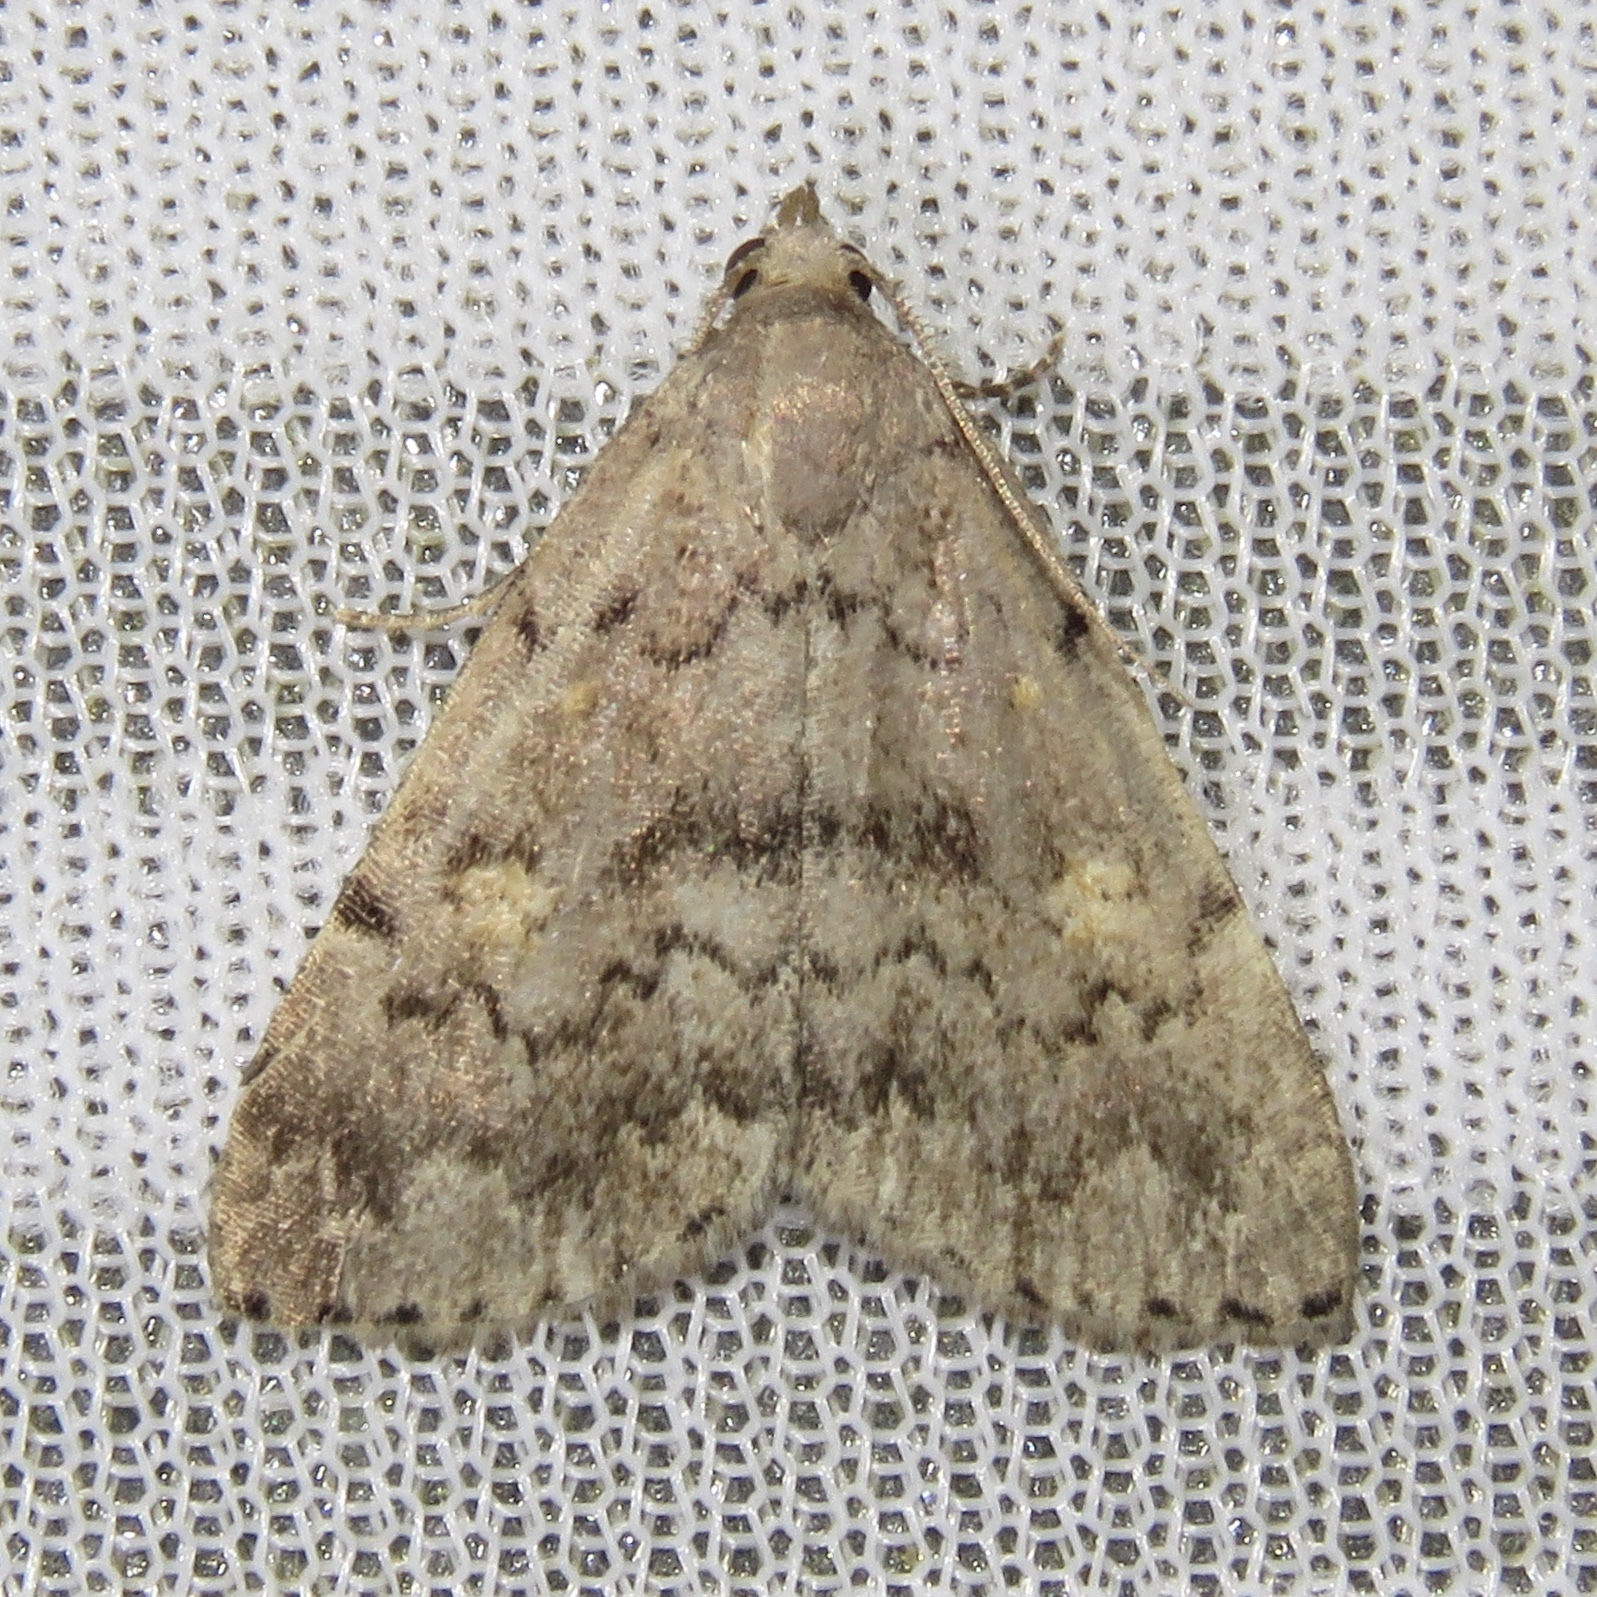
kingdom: Animalia
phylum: Arthropoda
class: Insecta
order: Lepidoptera
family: Erebidae
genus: Idia
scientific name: Idia aemula
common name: Common idia moth
